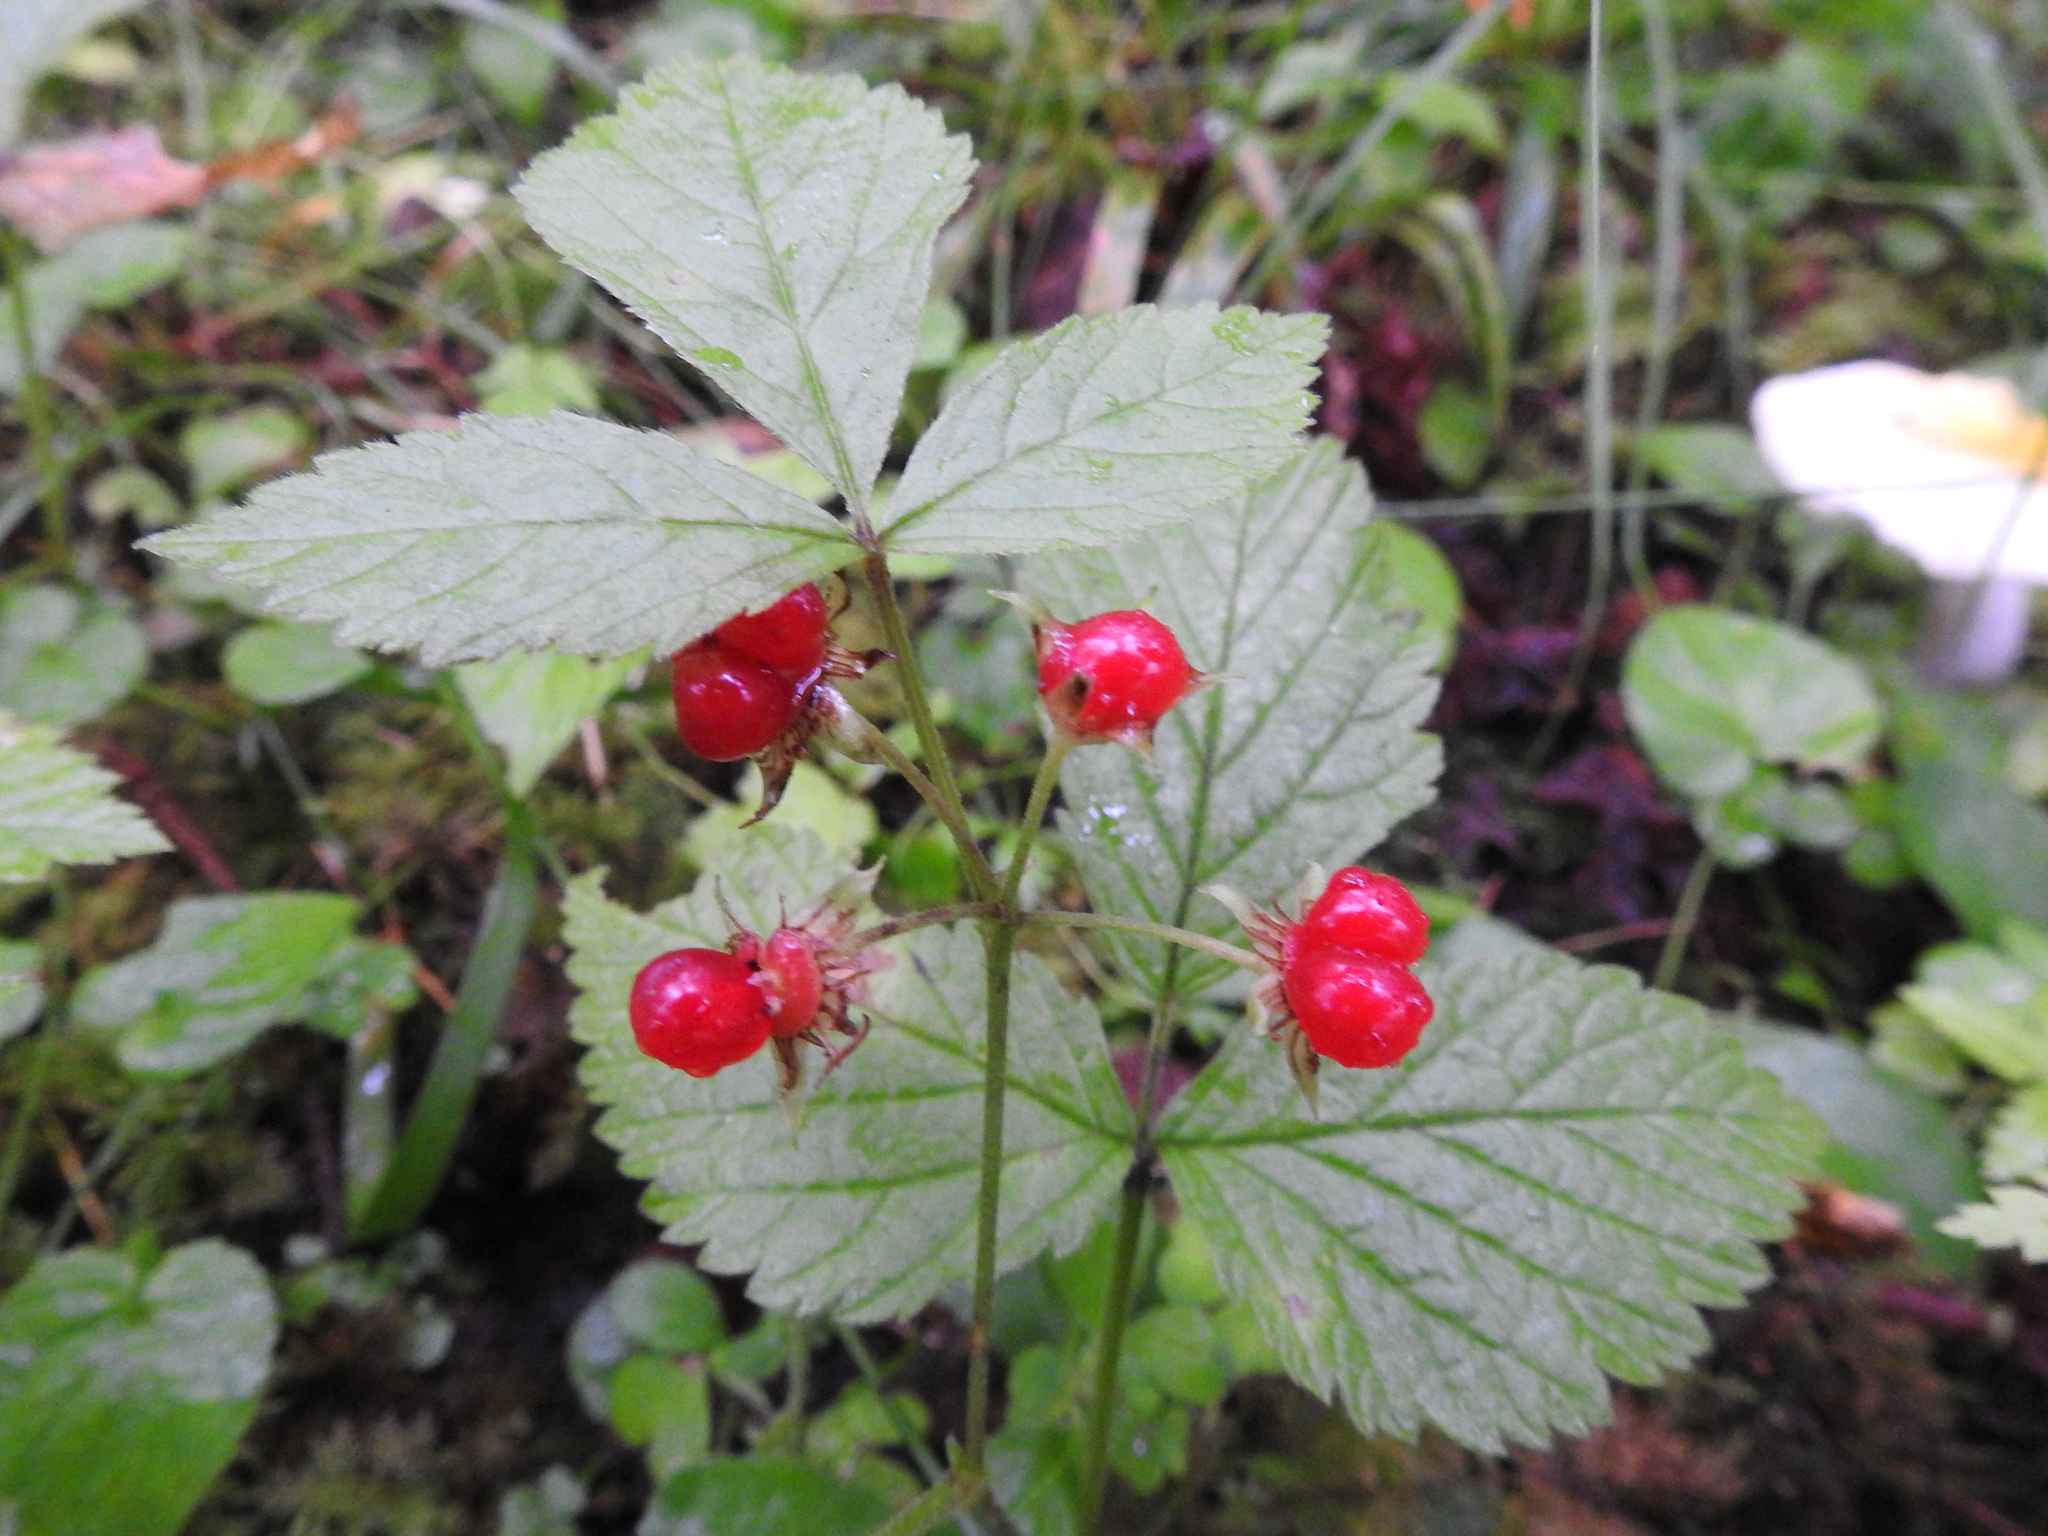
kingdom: Plantae
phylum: Tracheophyta
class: Magnoliopsida
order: Rosales
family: Rosaceae
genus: Rubus
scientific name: Rubus saxatilis
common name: Stone bramble
